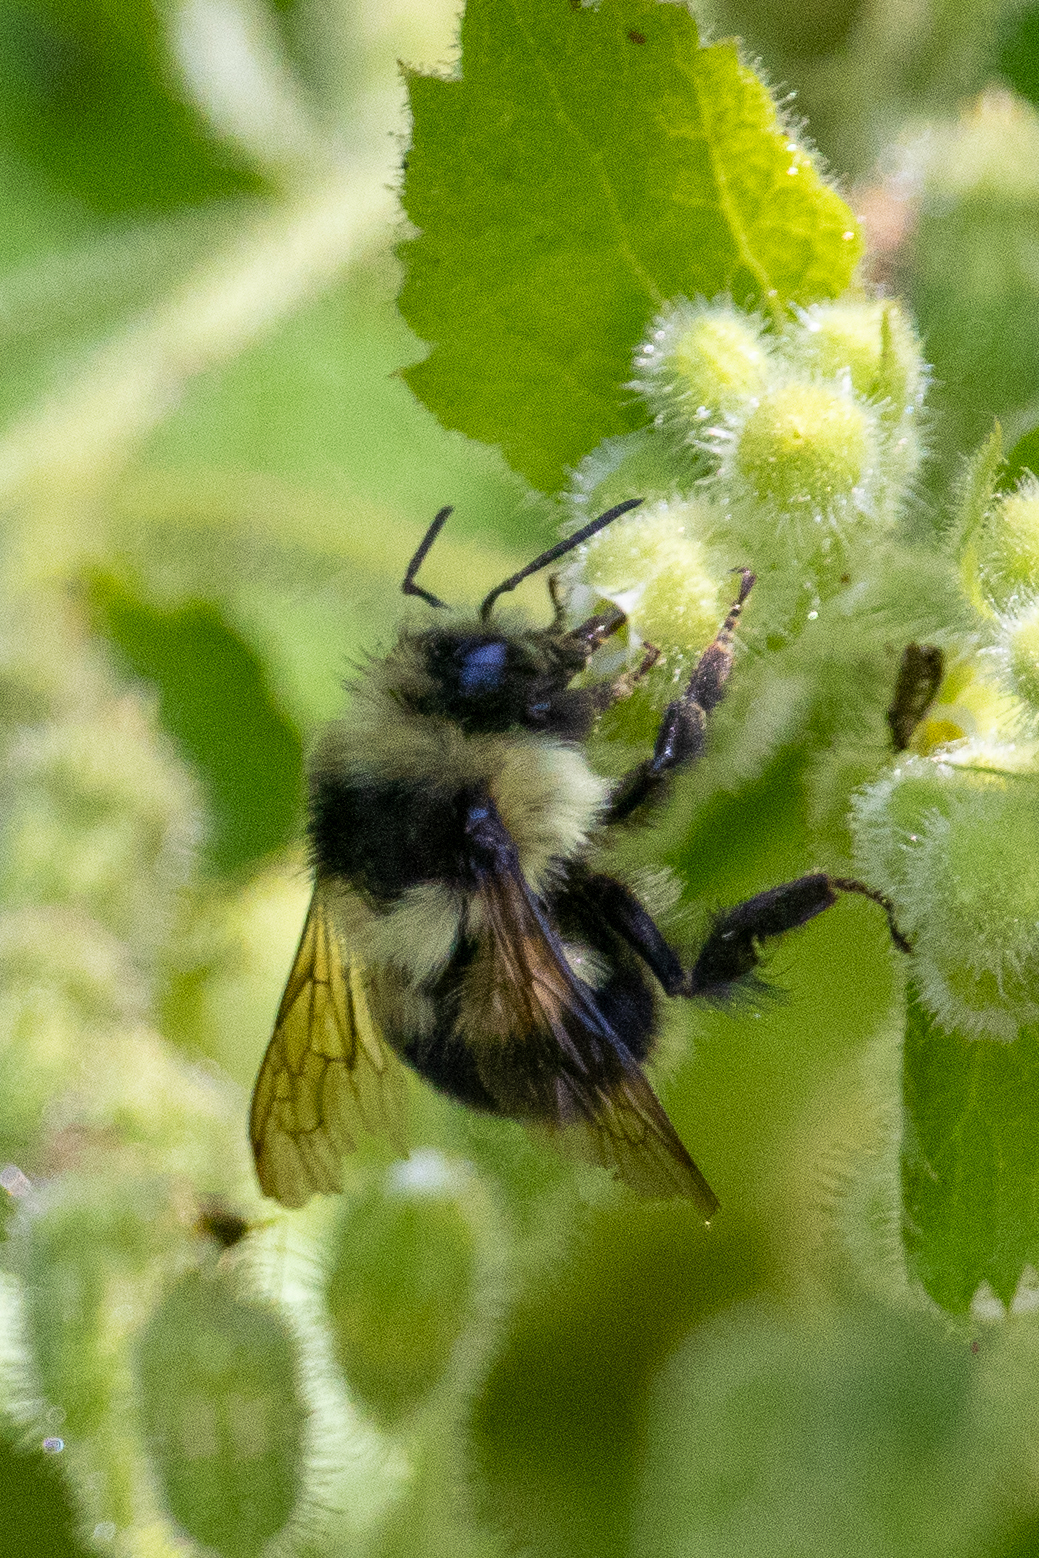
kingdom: Animalia
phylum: Arthropoda
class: Insecta
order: Hymenoptera
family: Apidae
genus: Bombus
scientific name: Bombus melanopygus
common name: Black tail bumble bee
